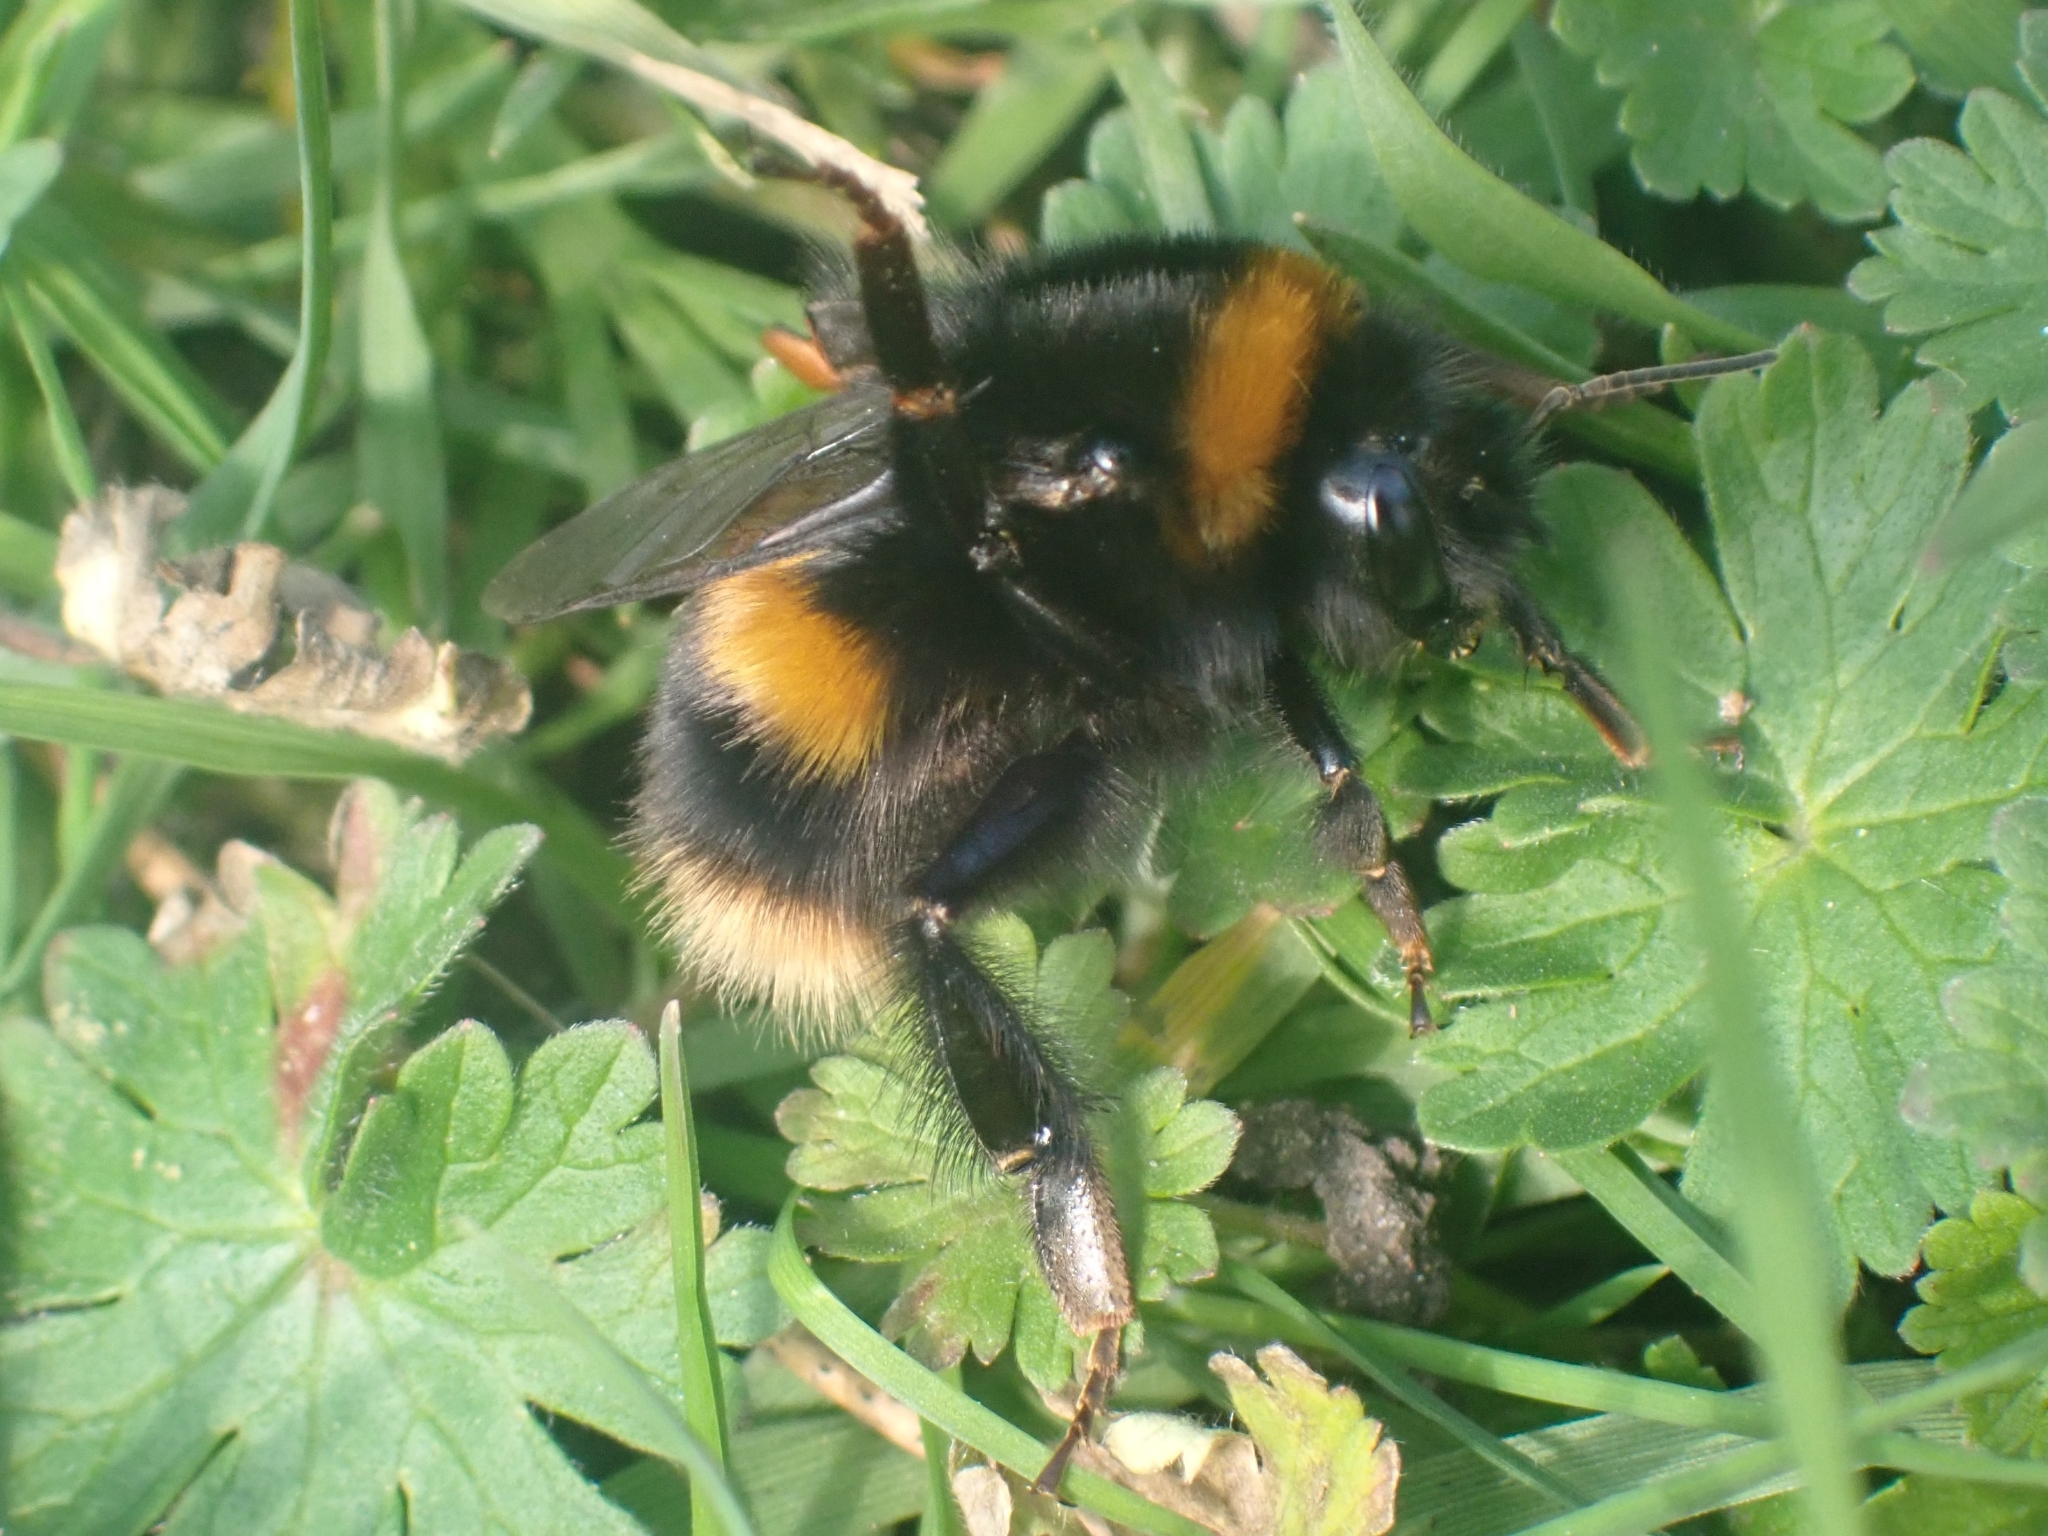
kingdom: Animalia
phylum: Arthropoda
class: Insecta
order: Hymenoptera
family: Apidae
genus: Bombus
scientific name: Bombus terrestris
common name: Buff-tailed bumblebee
